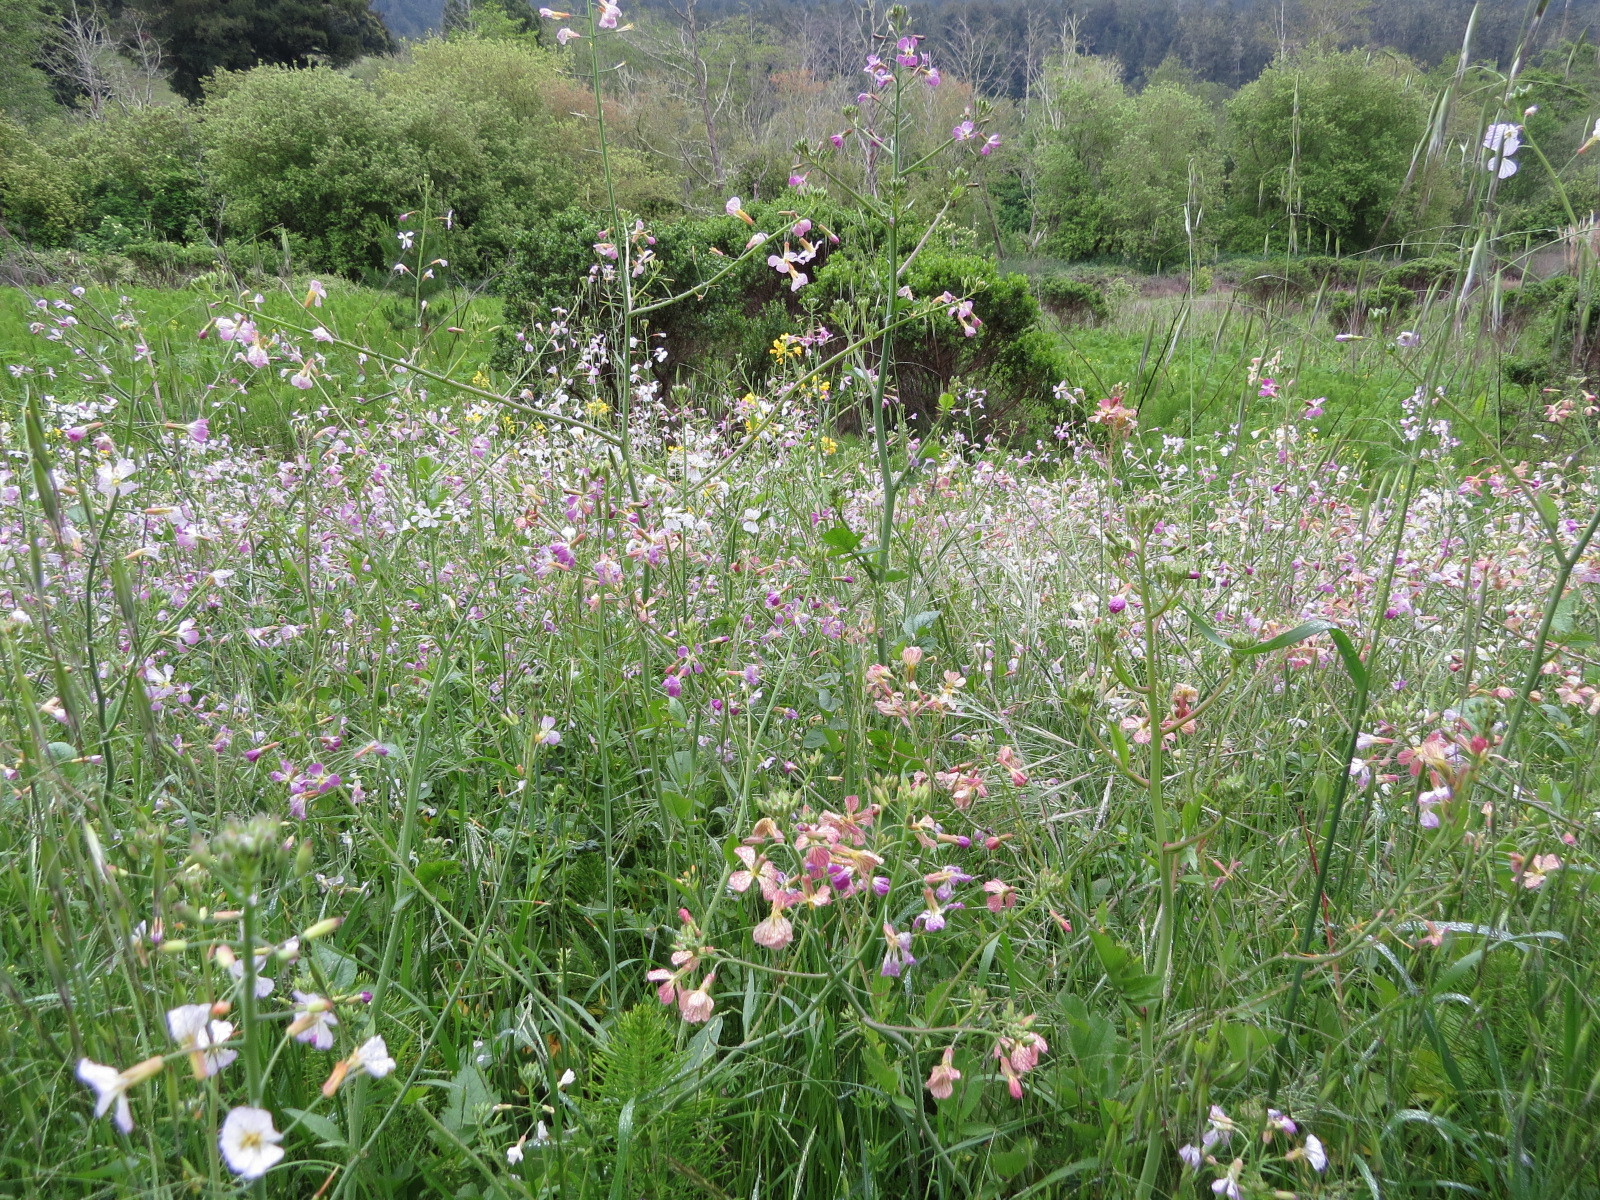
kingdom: Plantae
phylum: Tracheophyta
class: Magnoliopsida
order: Brassicales
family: Brassicaceae
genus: Raphanus
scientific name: Raphanus sativus
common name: Cultivated radish
